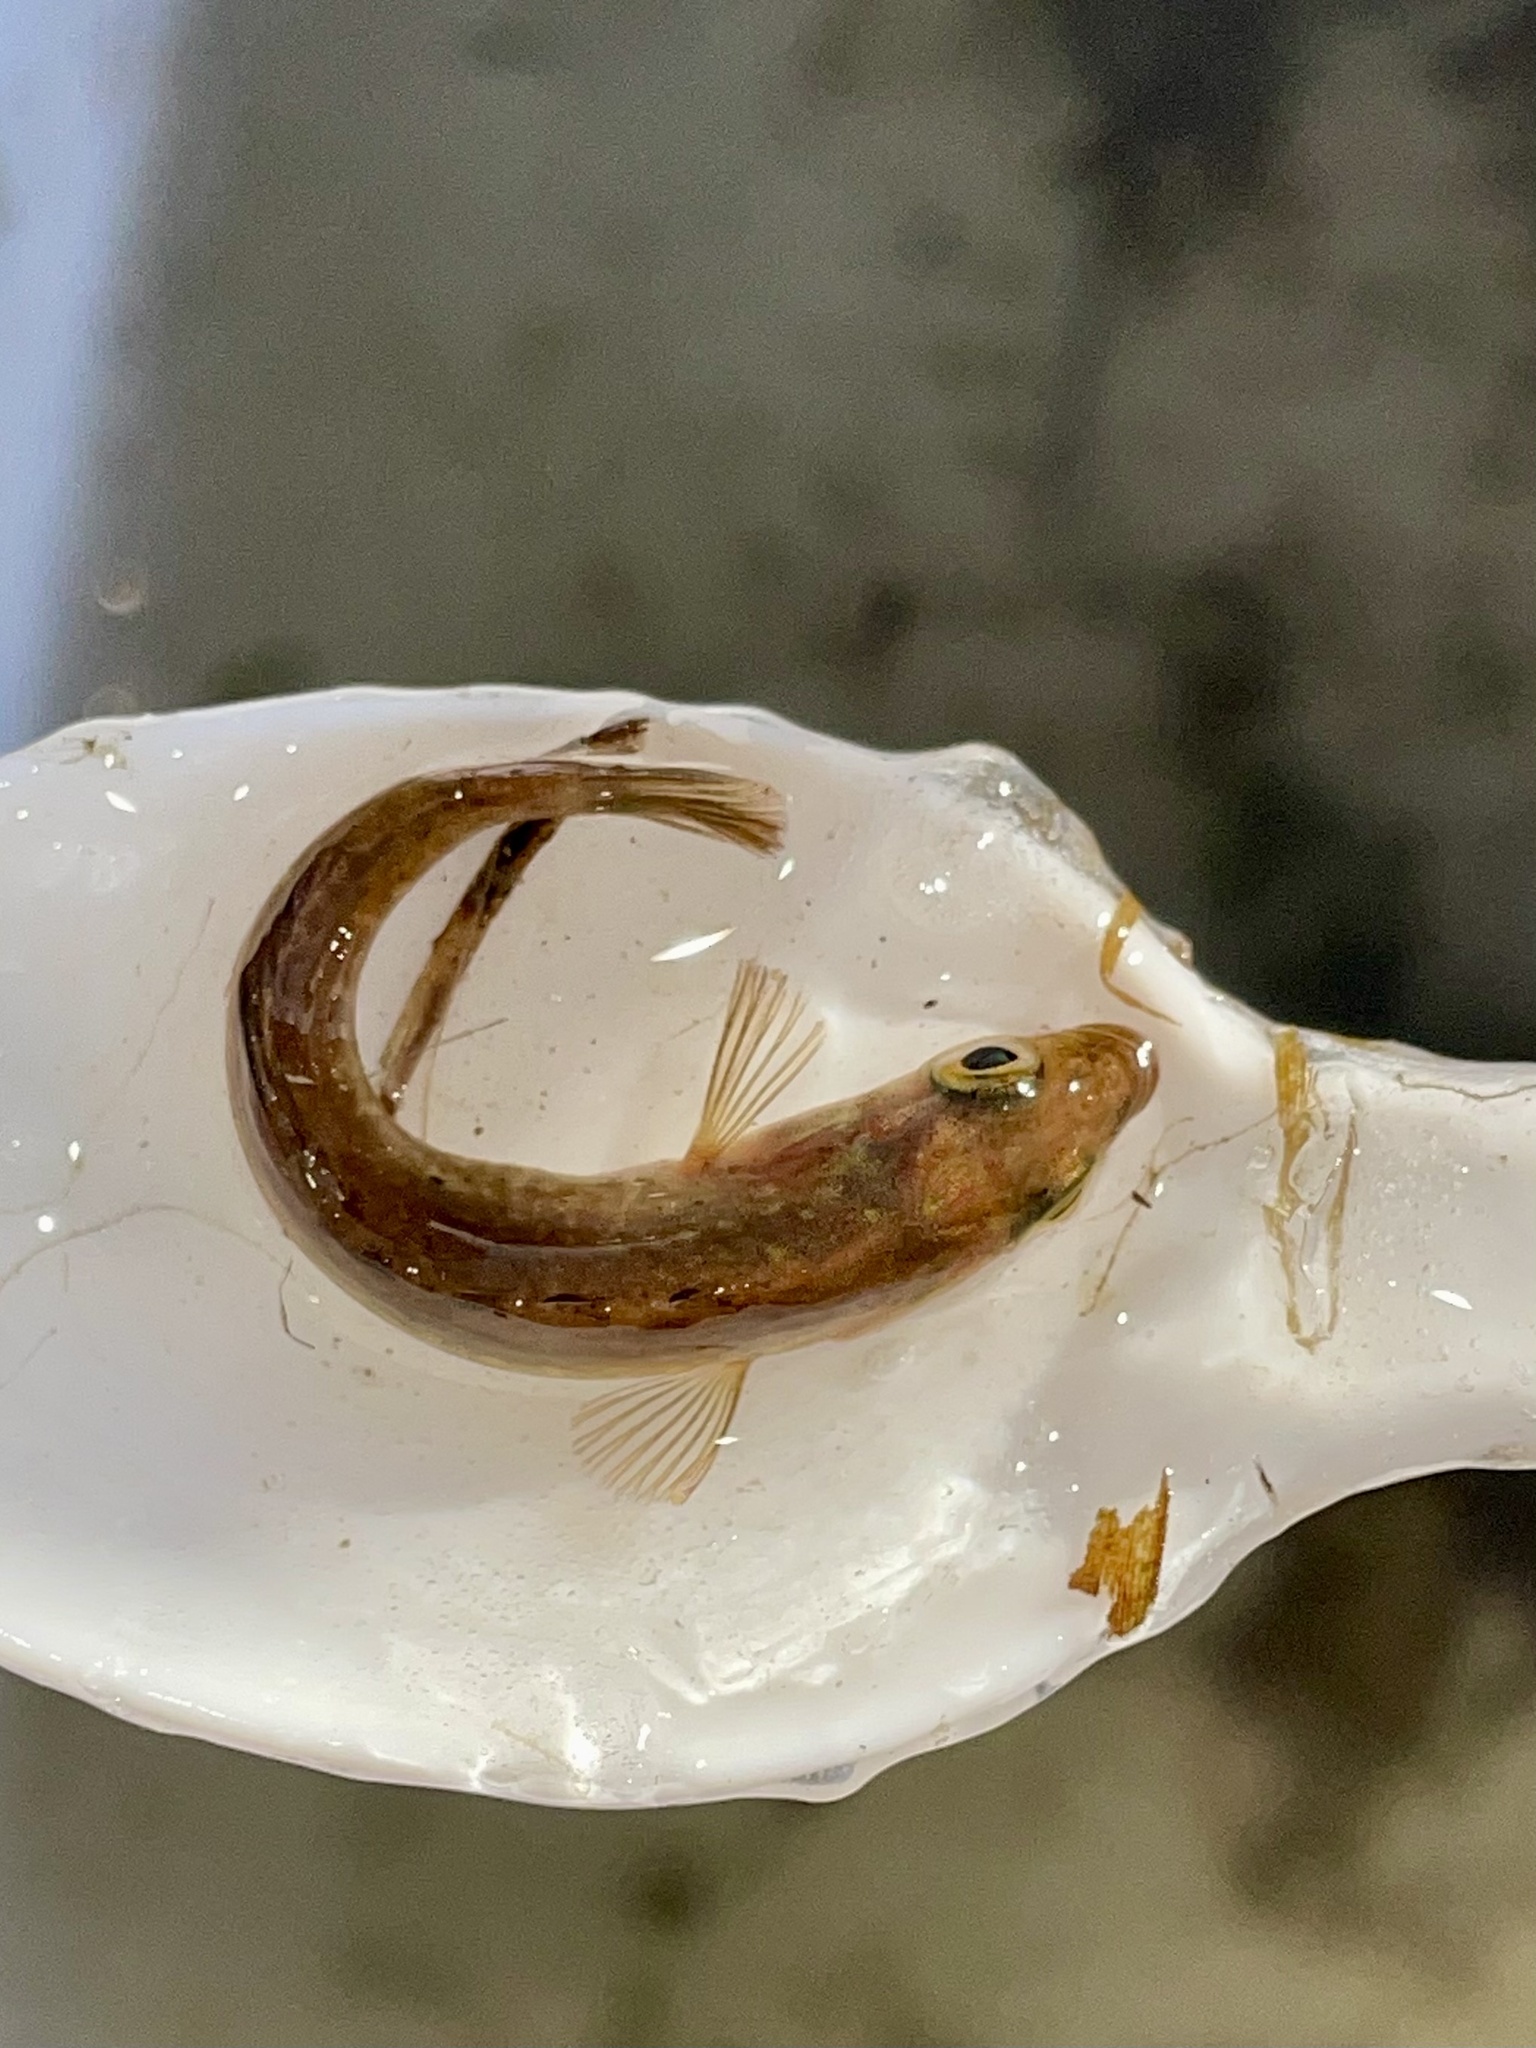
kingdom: Animalia
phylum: Chordata
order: Gasterosteiformes
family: Gasterosteidae
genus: Culaea
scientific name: Culaea inconstans
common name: Brook stickleback
